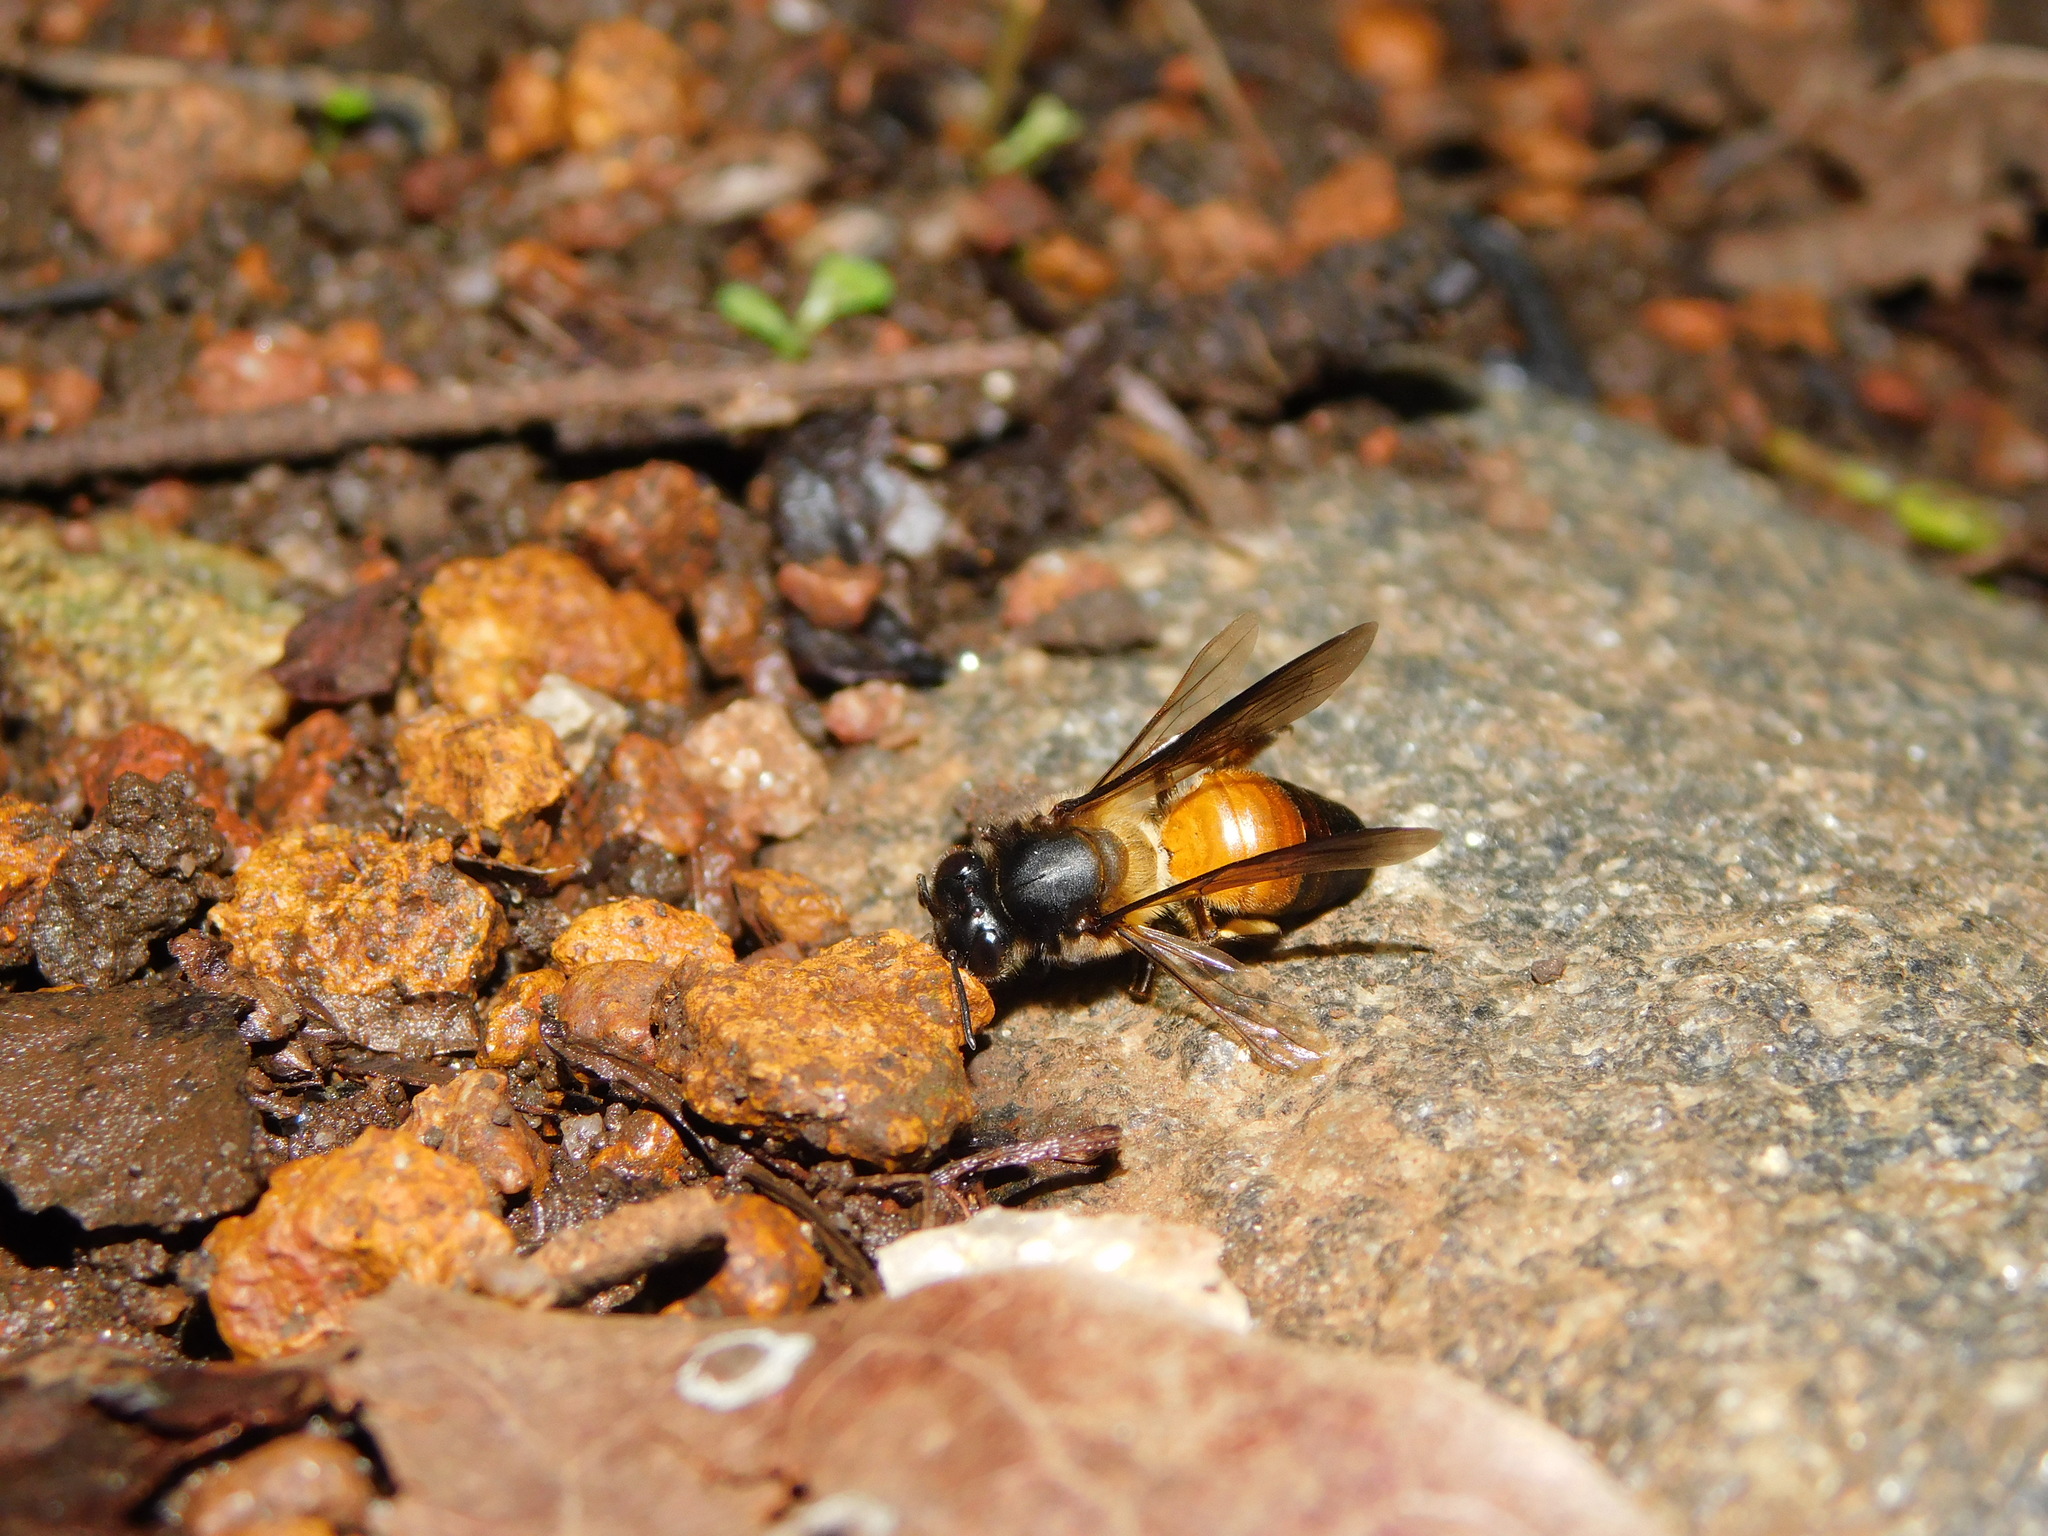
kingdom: Animalia
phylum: Arthropoda
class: Insecta
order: Hymenoptera
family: Apidae
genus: Apis
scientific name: Apis dorsata
